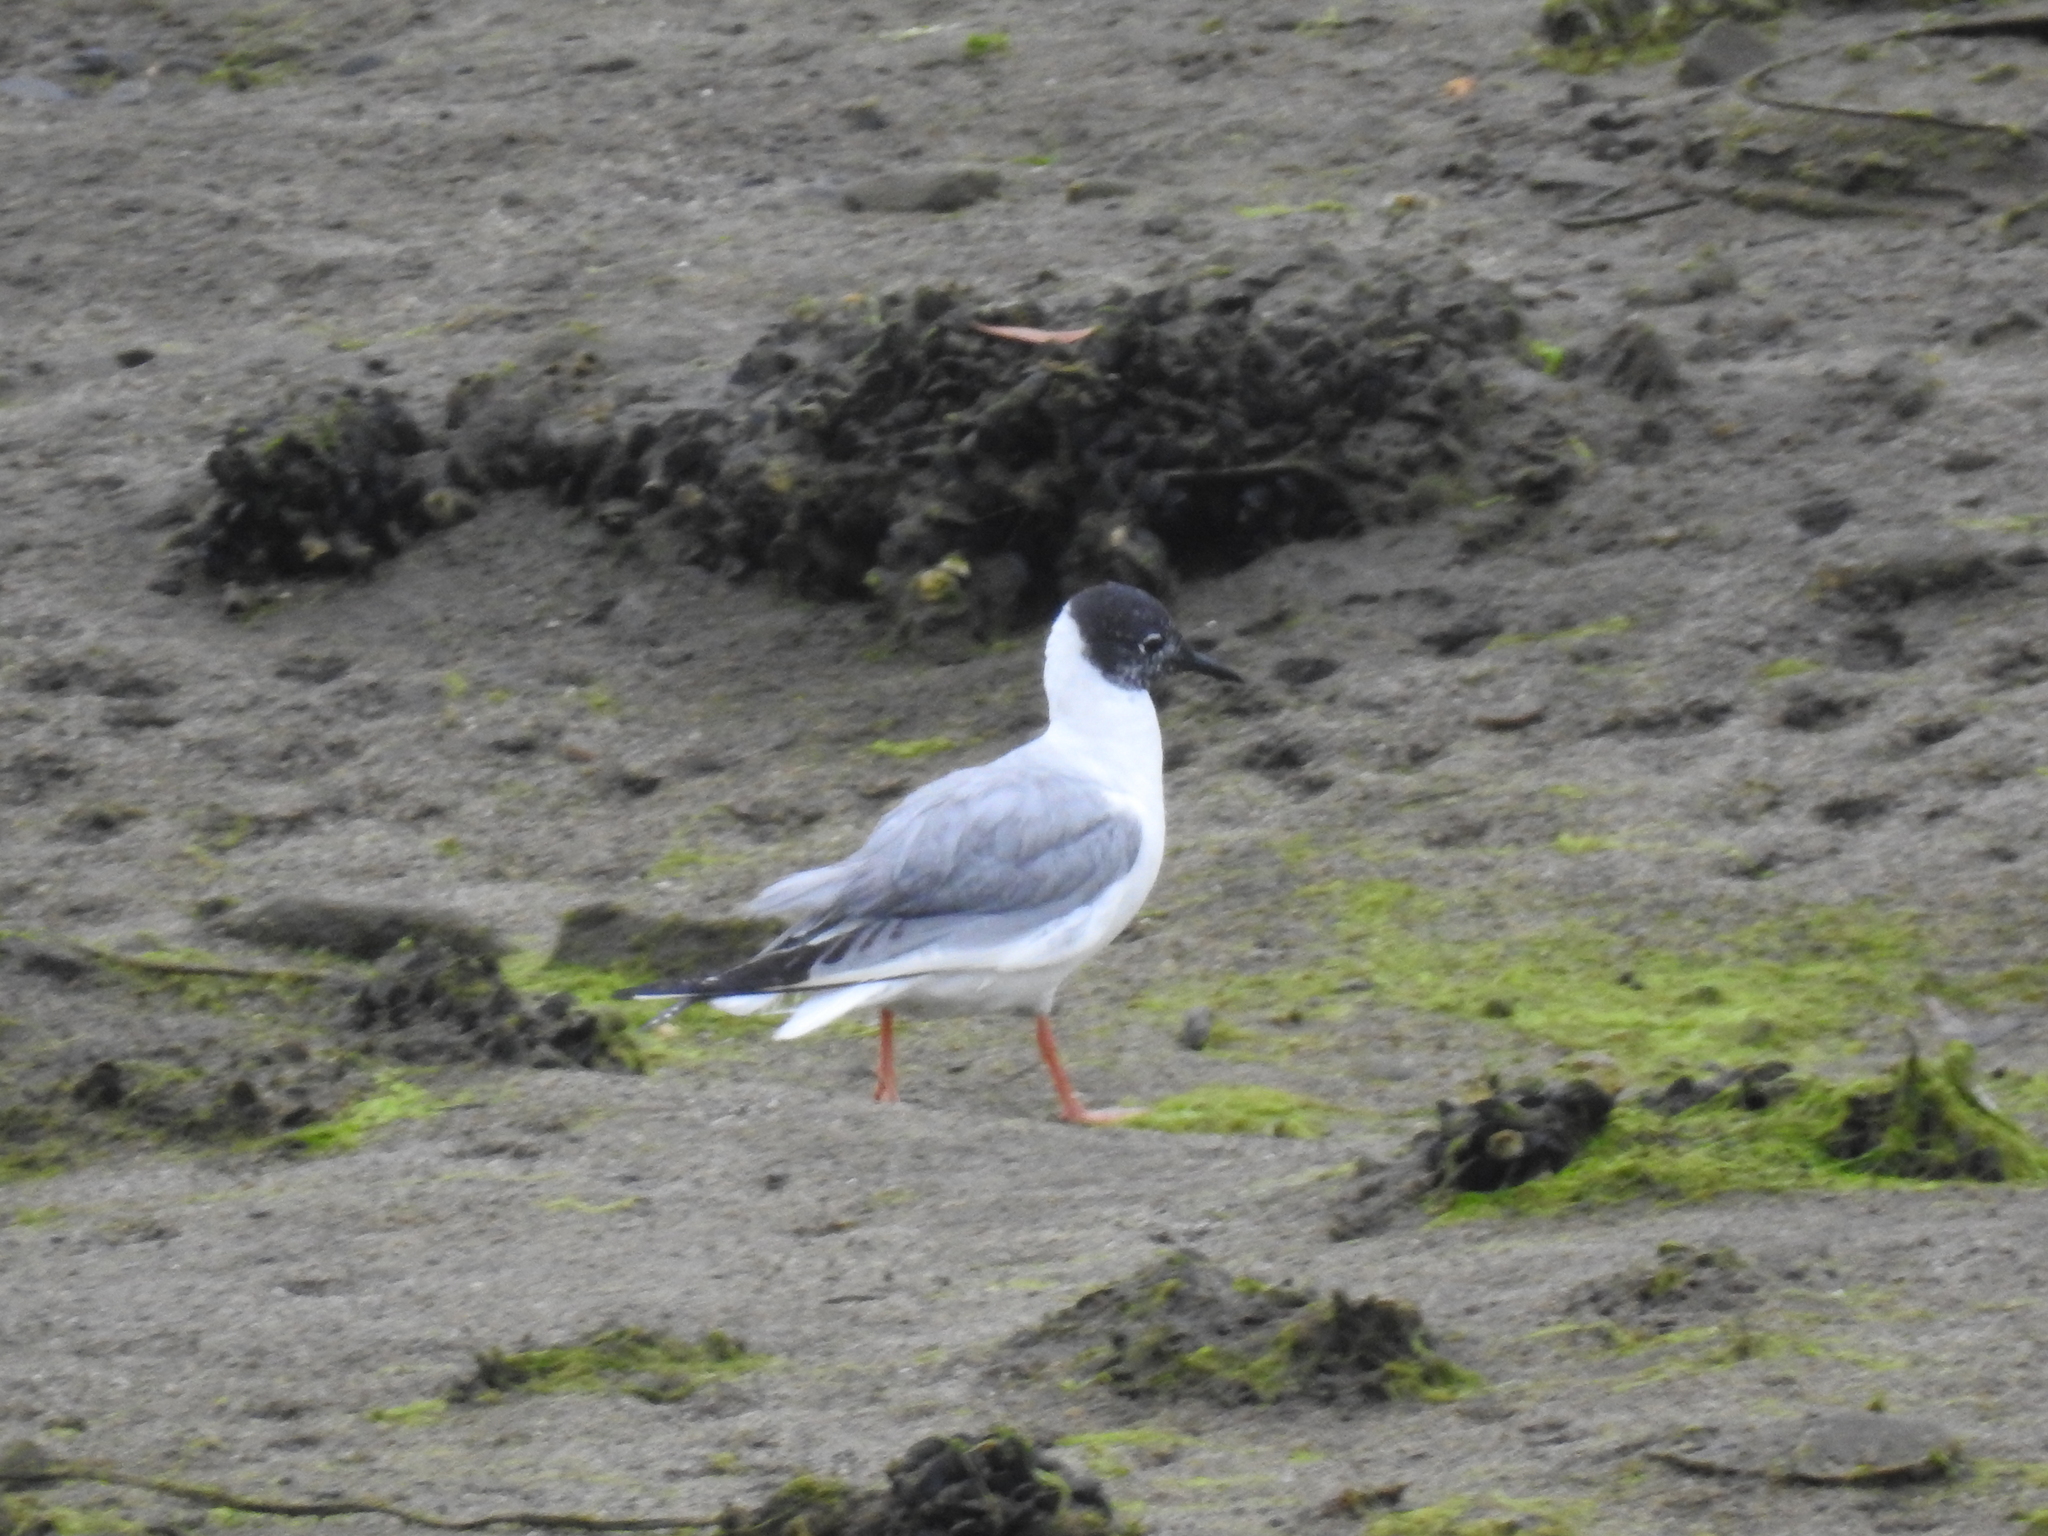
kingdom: Animalia
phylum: Chordata
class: Aves
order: Charadriiformes
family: Laridae
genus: Chroicocephalus
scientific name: Chroicocephalus philadelphia
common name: Bonaparte's gull
